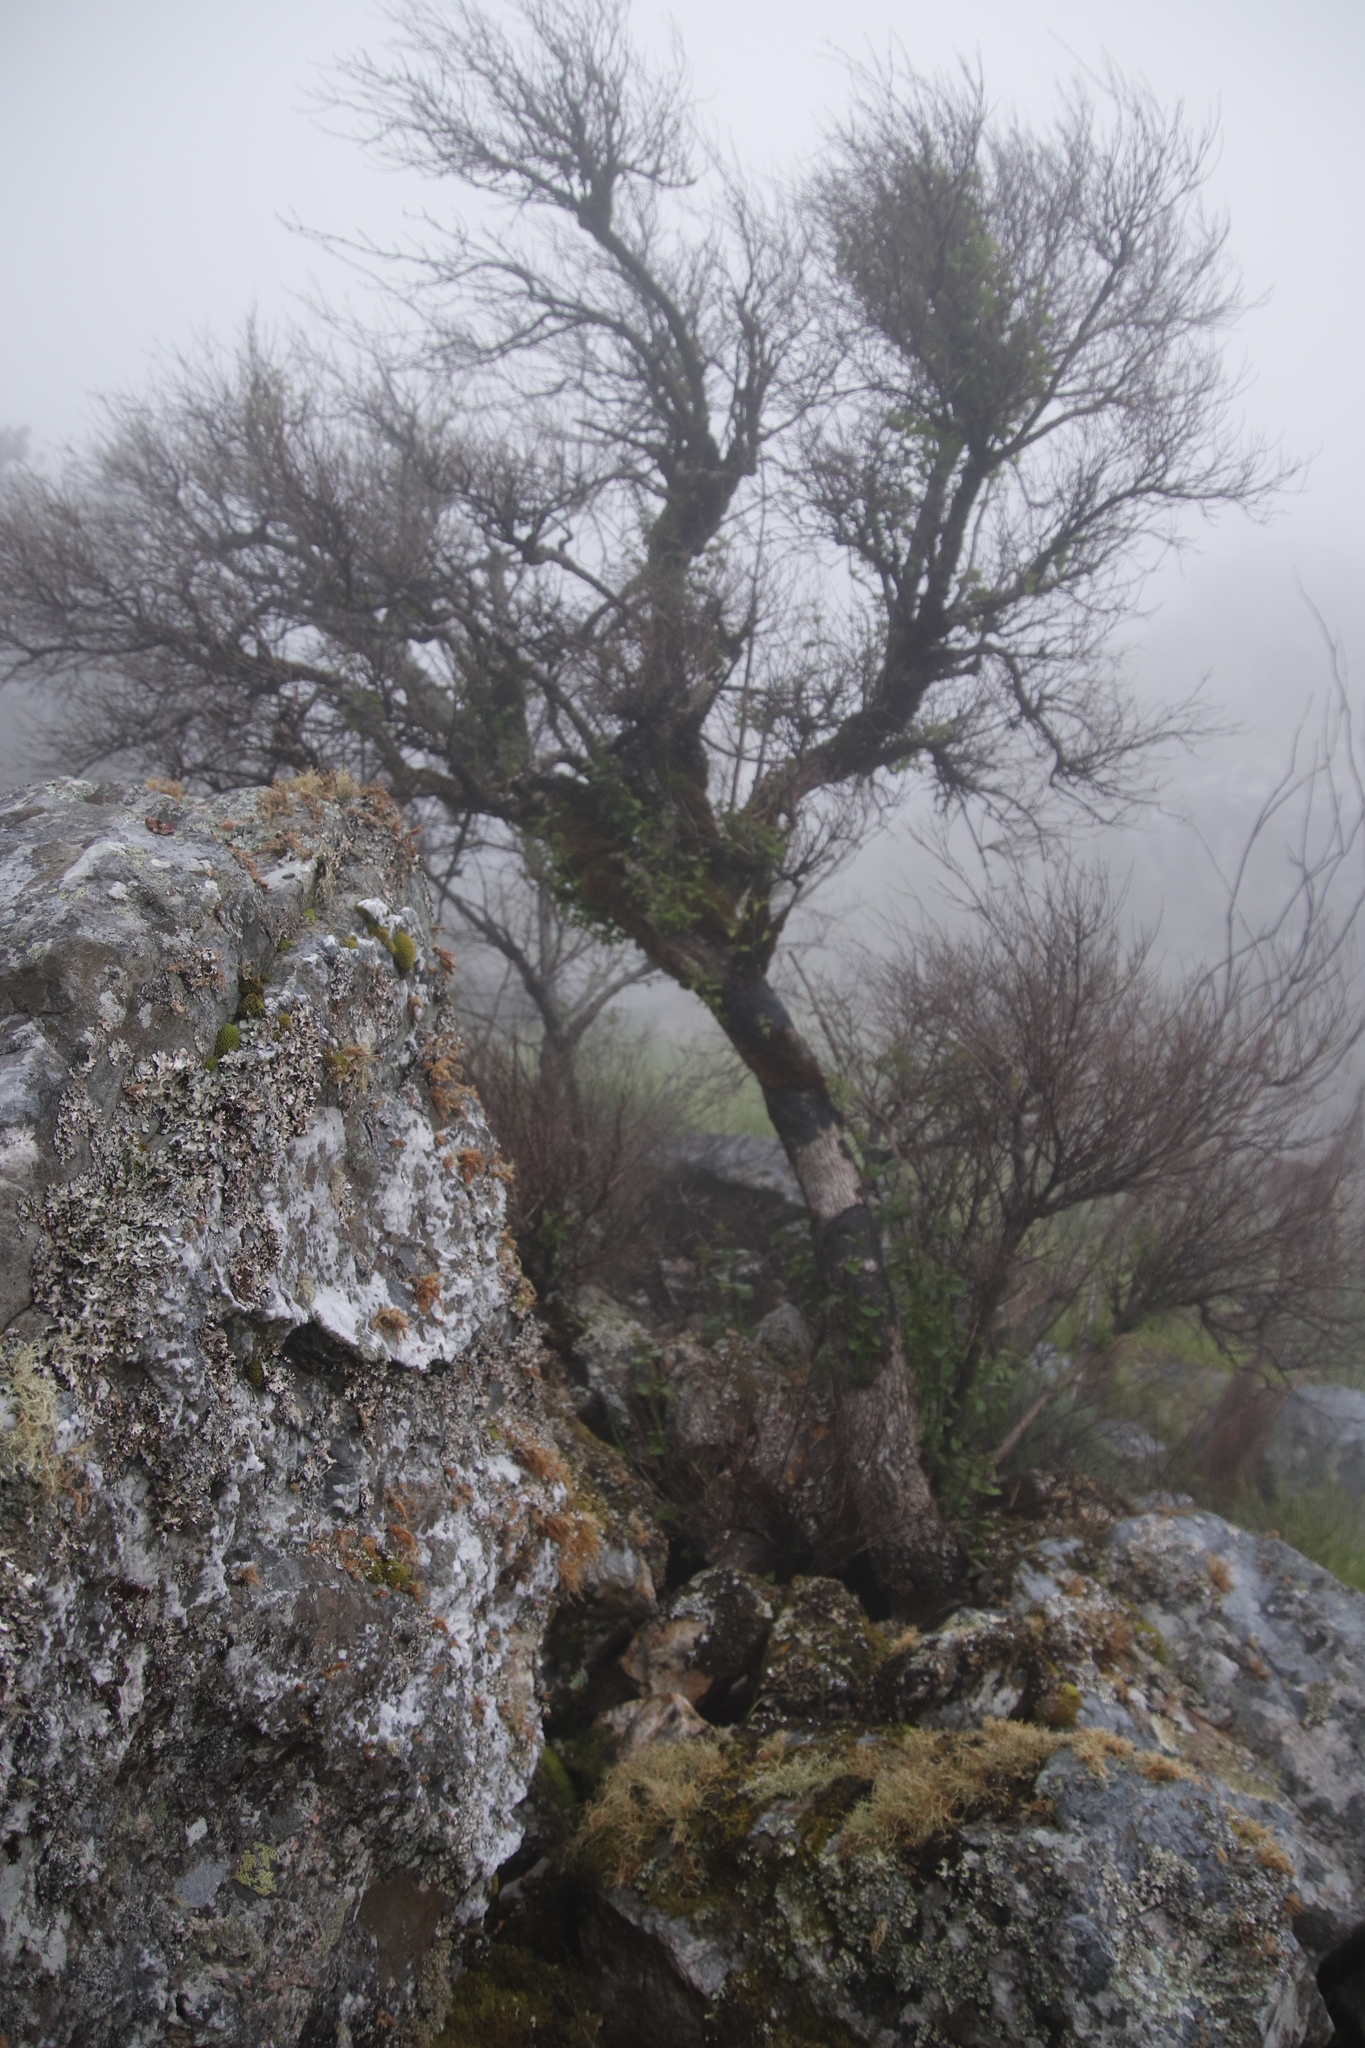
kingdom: Plantae
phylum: Tracheophyta
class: Magnoliopsida
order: Celastrales
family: Celastraceae
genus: Gymnosporia
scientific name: Gymnosporia laurina
